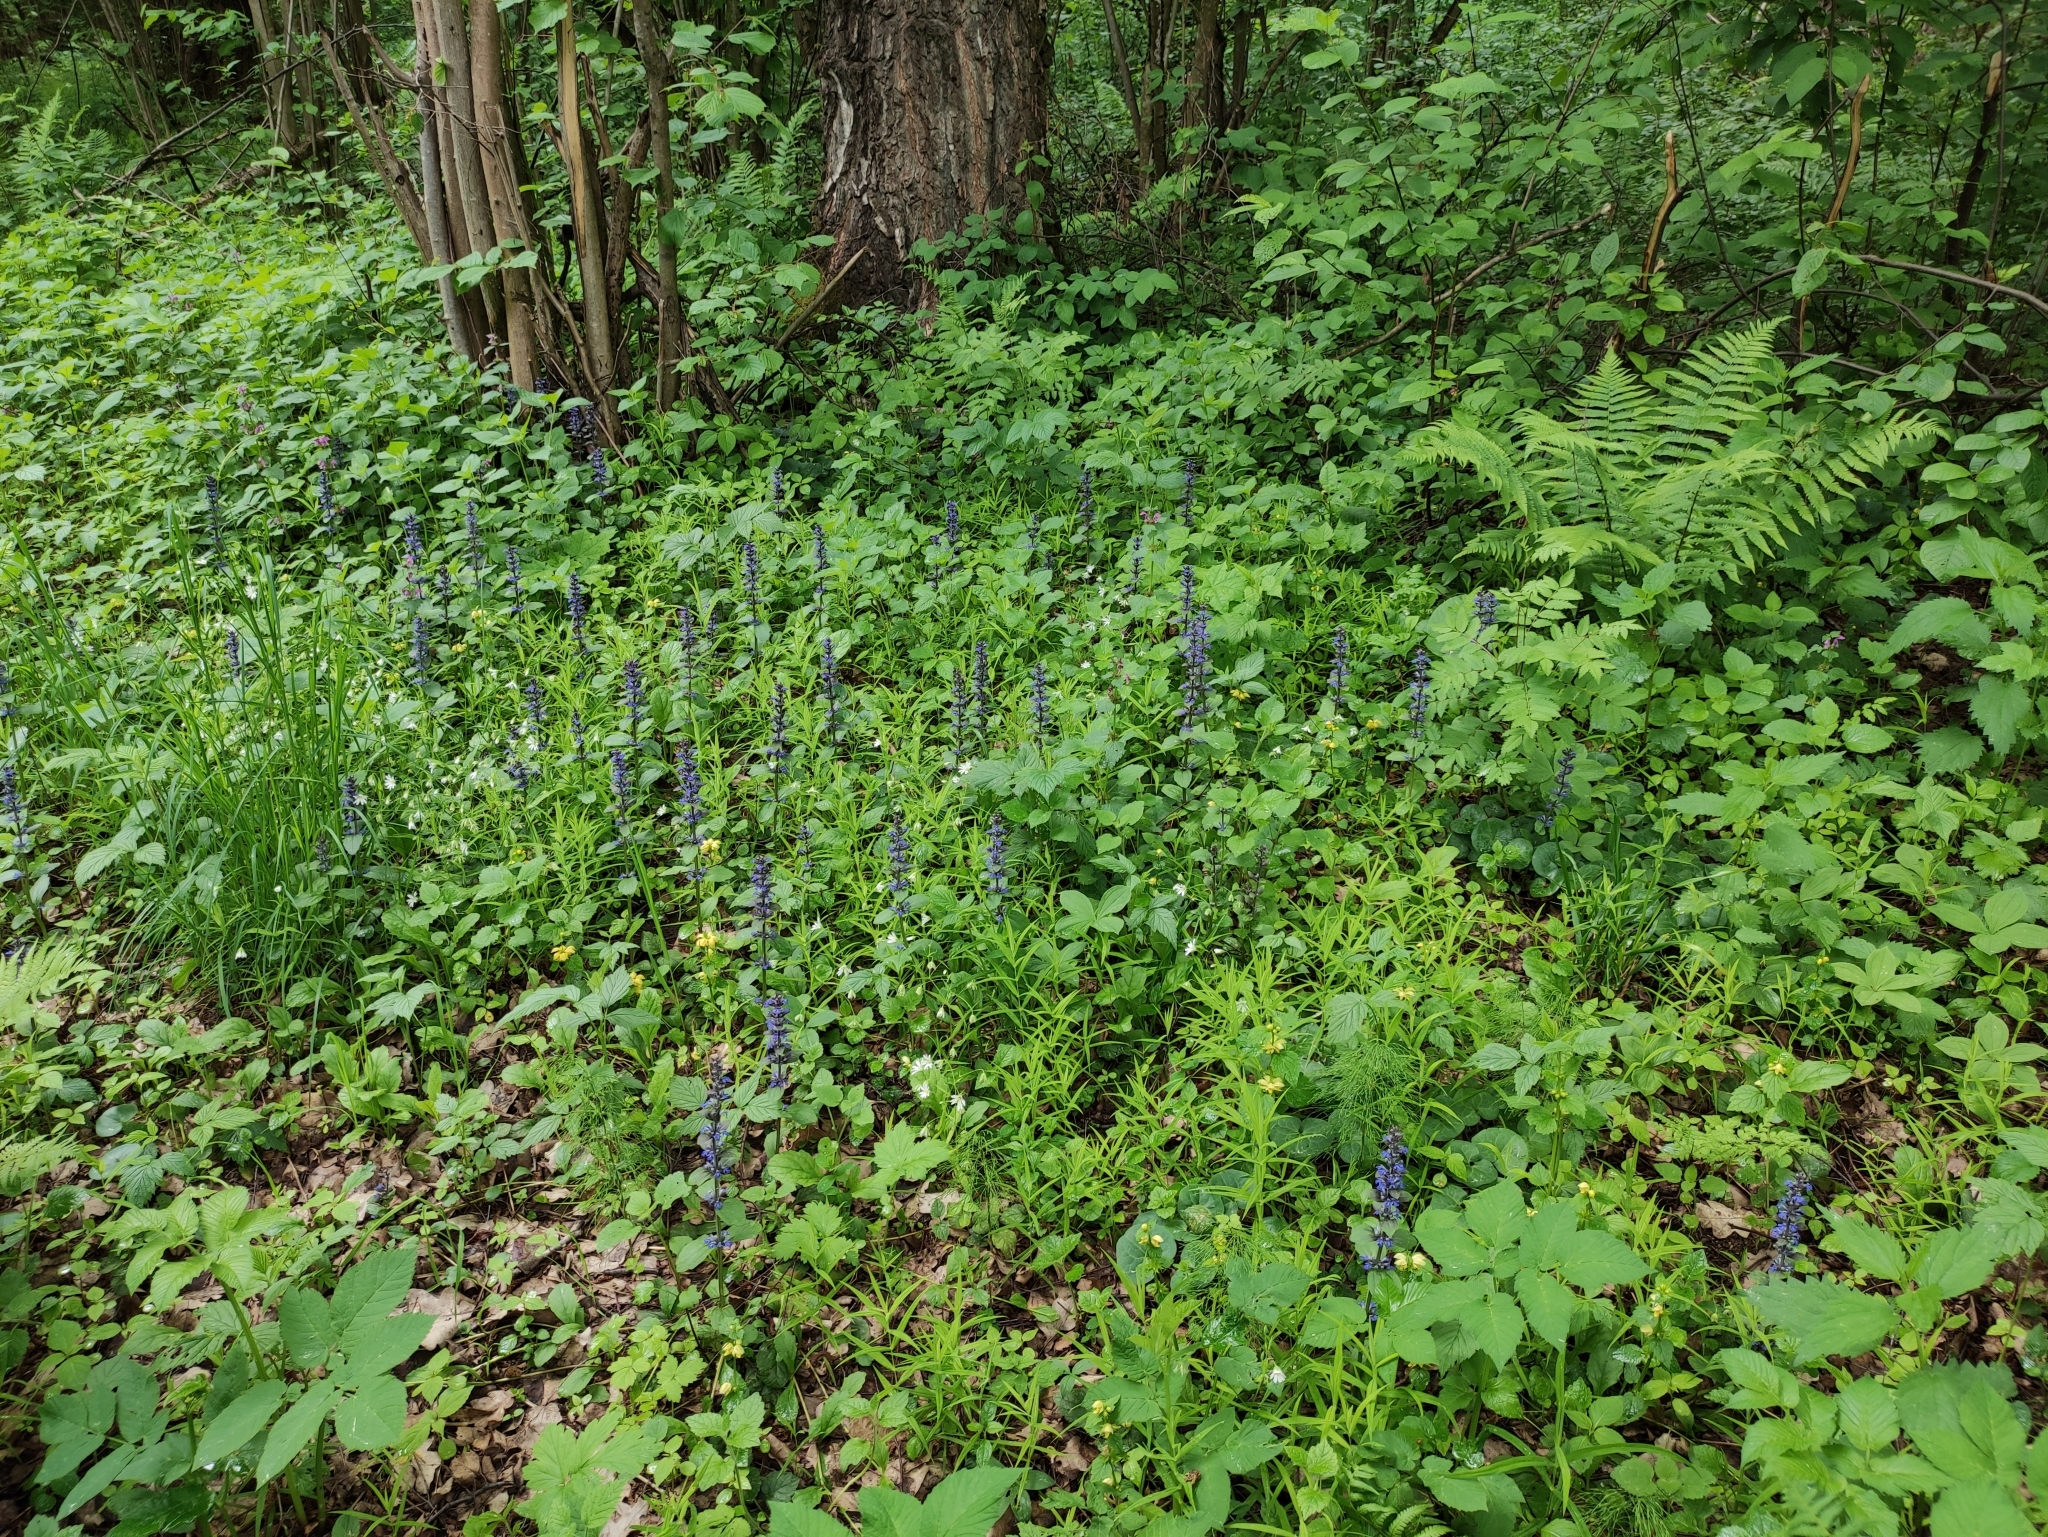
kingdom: Plantae
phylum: Tracheophyta
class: Magnoliopsida
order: Lamiales
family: Lamiaceae
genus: Ajuga
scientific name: Ajuga reptans
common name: Bugle
